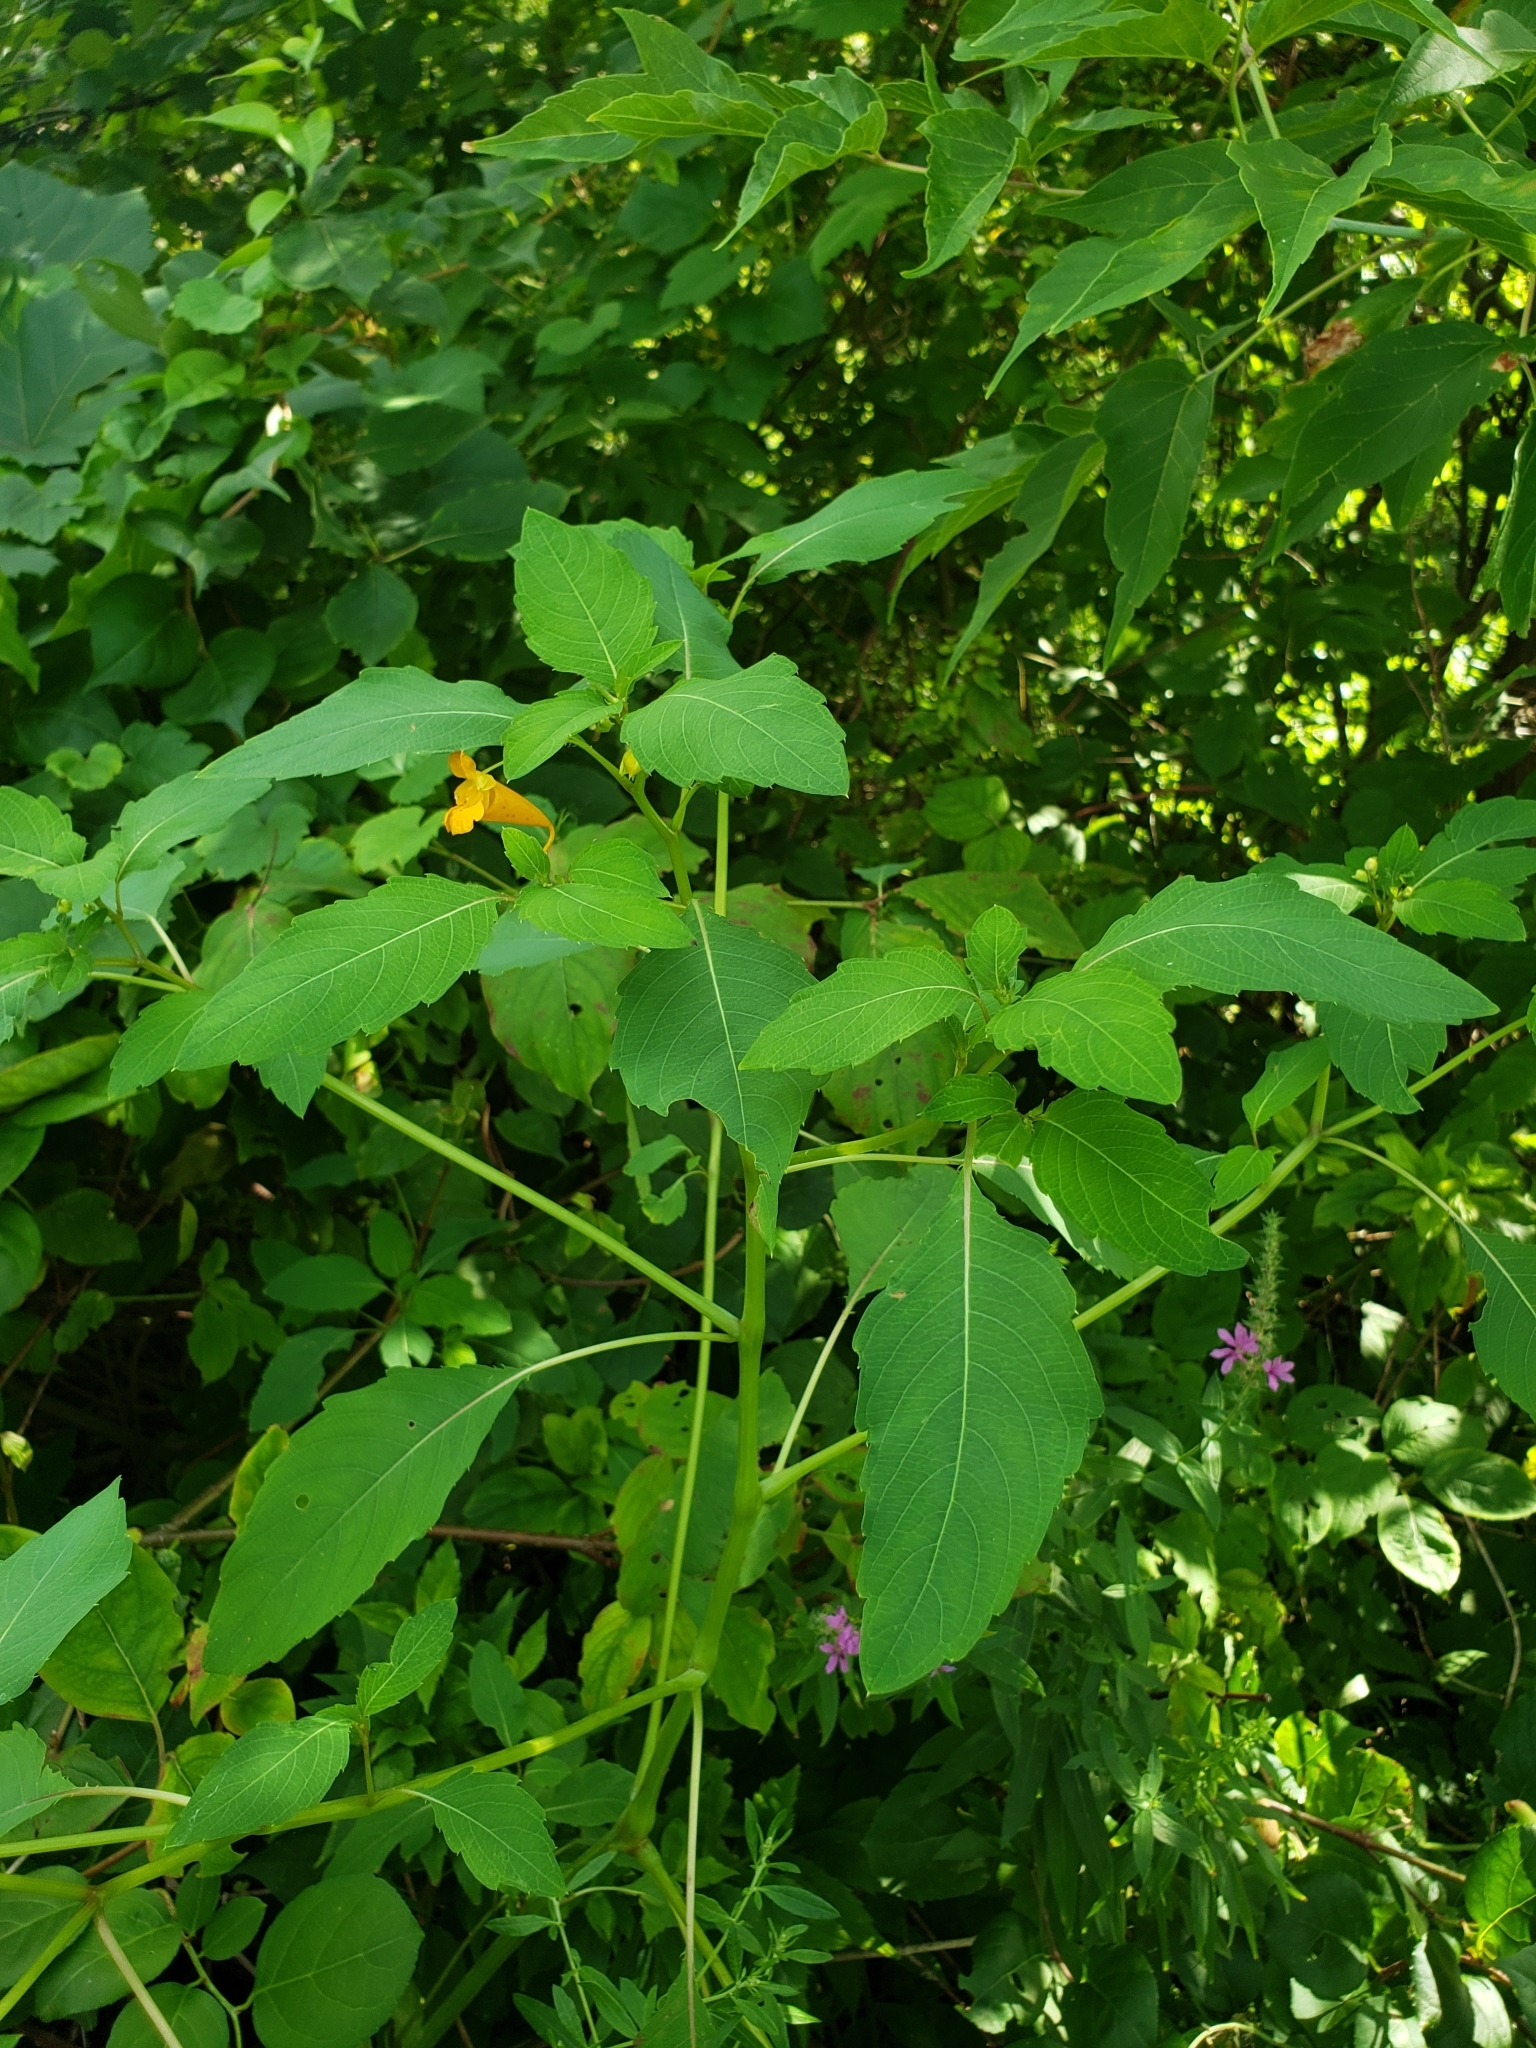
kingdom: Plantae
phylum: Tracheophyta
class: Magnoliopsida
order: Ericales
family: Balsaminaceae
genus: Impatiens
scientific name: Impatiens capensis
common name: Orange balsam
